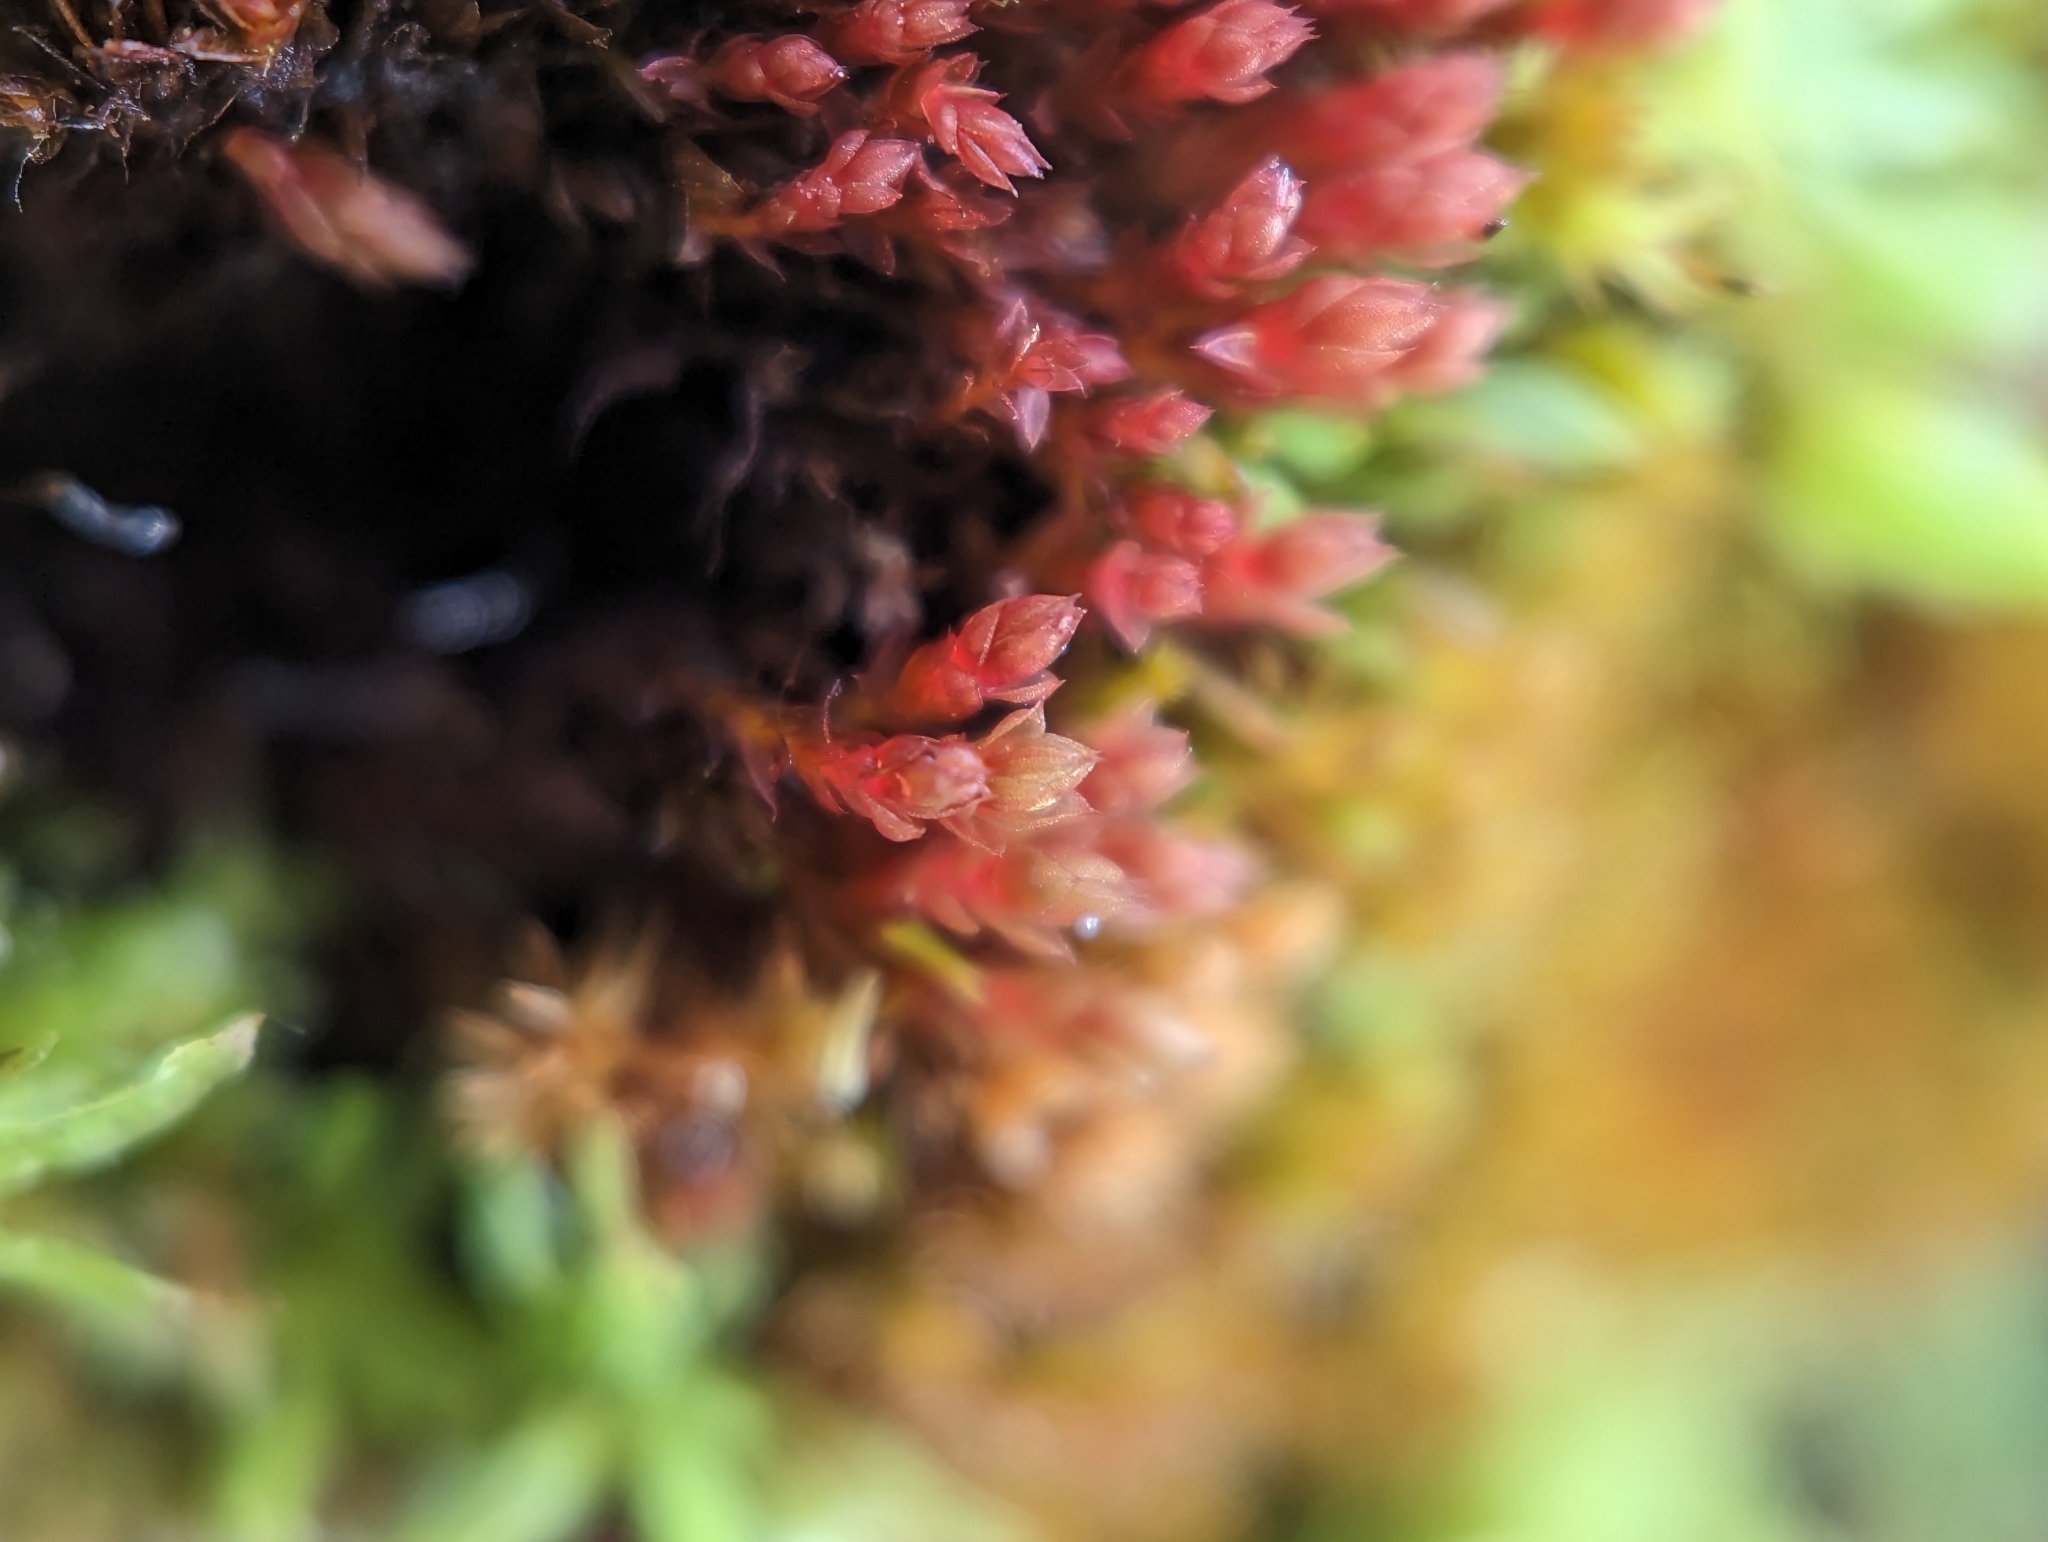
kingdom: Plantae
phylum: Bryophyta
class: Bryopsida
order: Bryales
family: Bryaceae
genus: Ptychostomum
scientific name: Ptychostomum pallens
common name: Pale thread-moss
